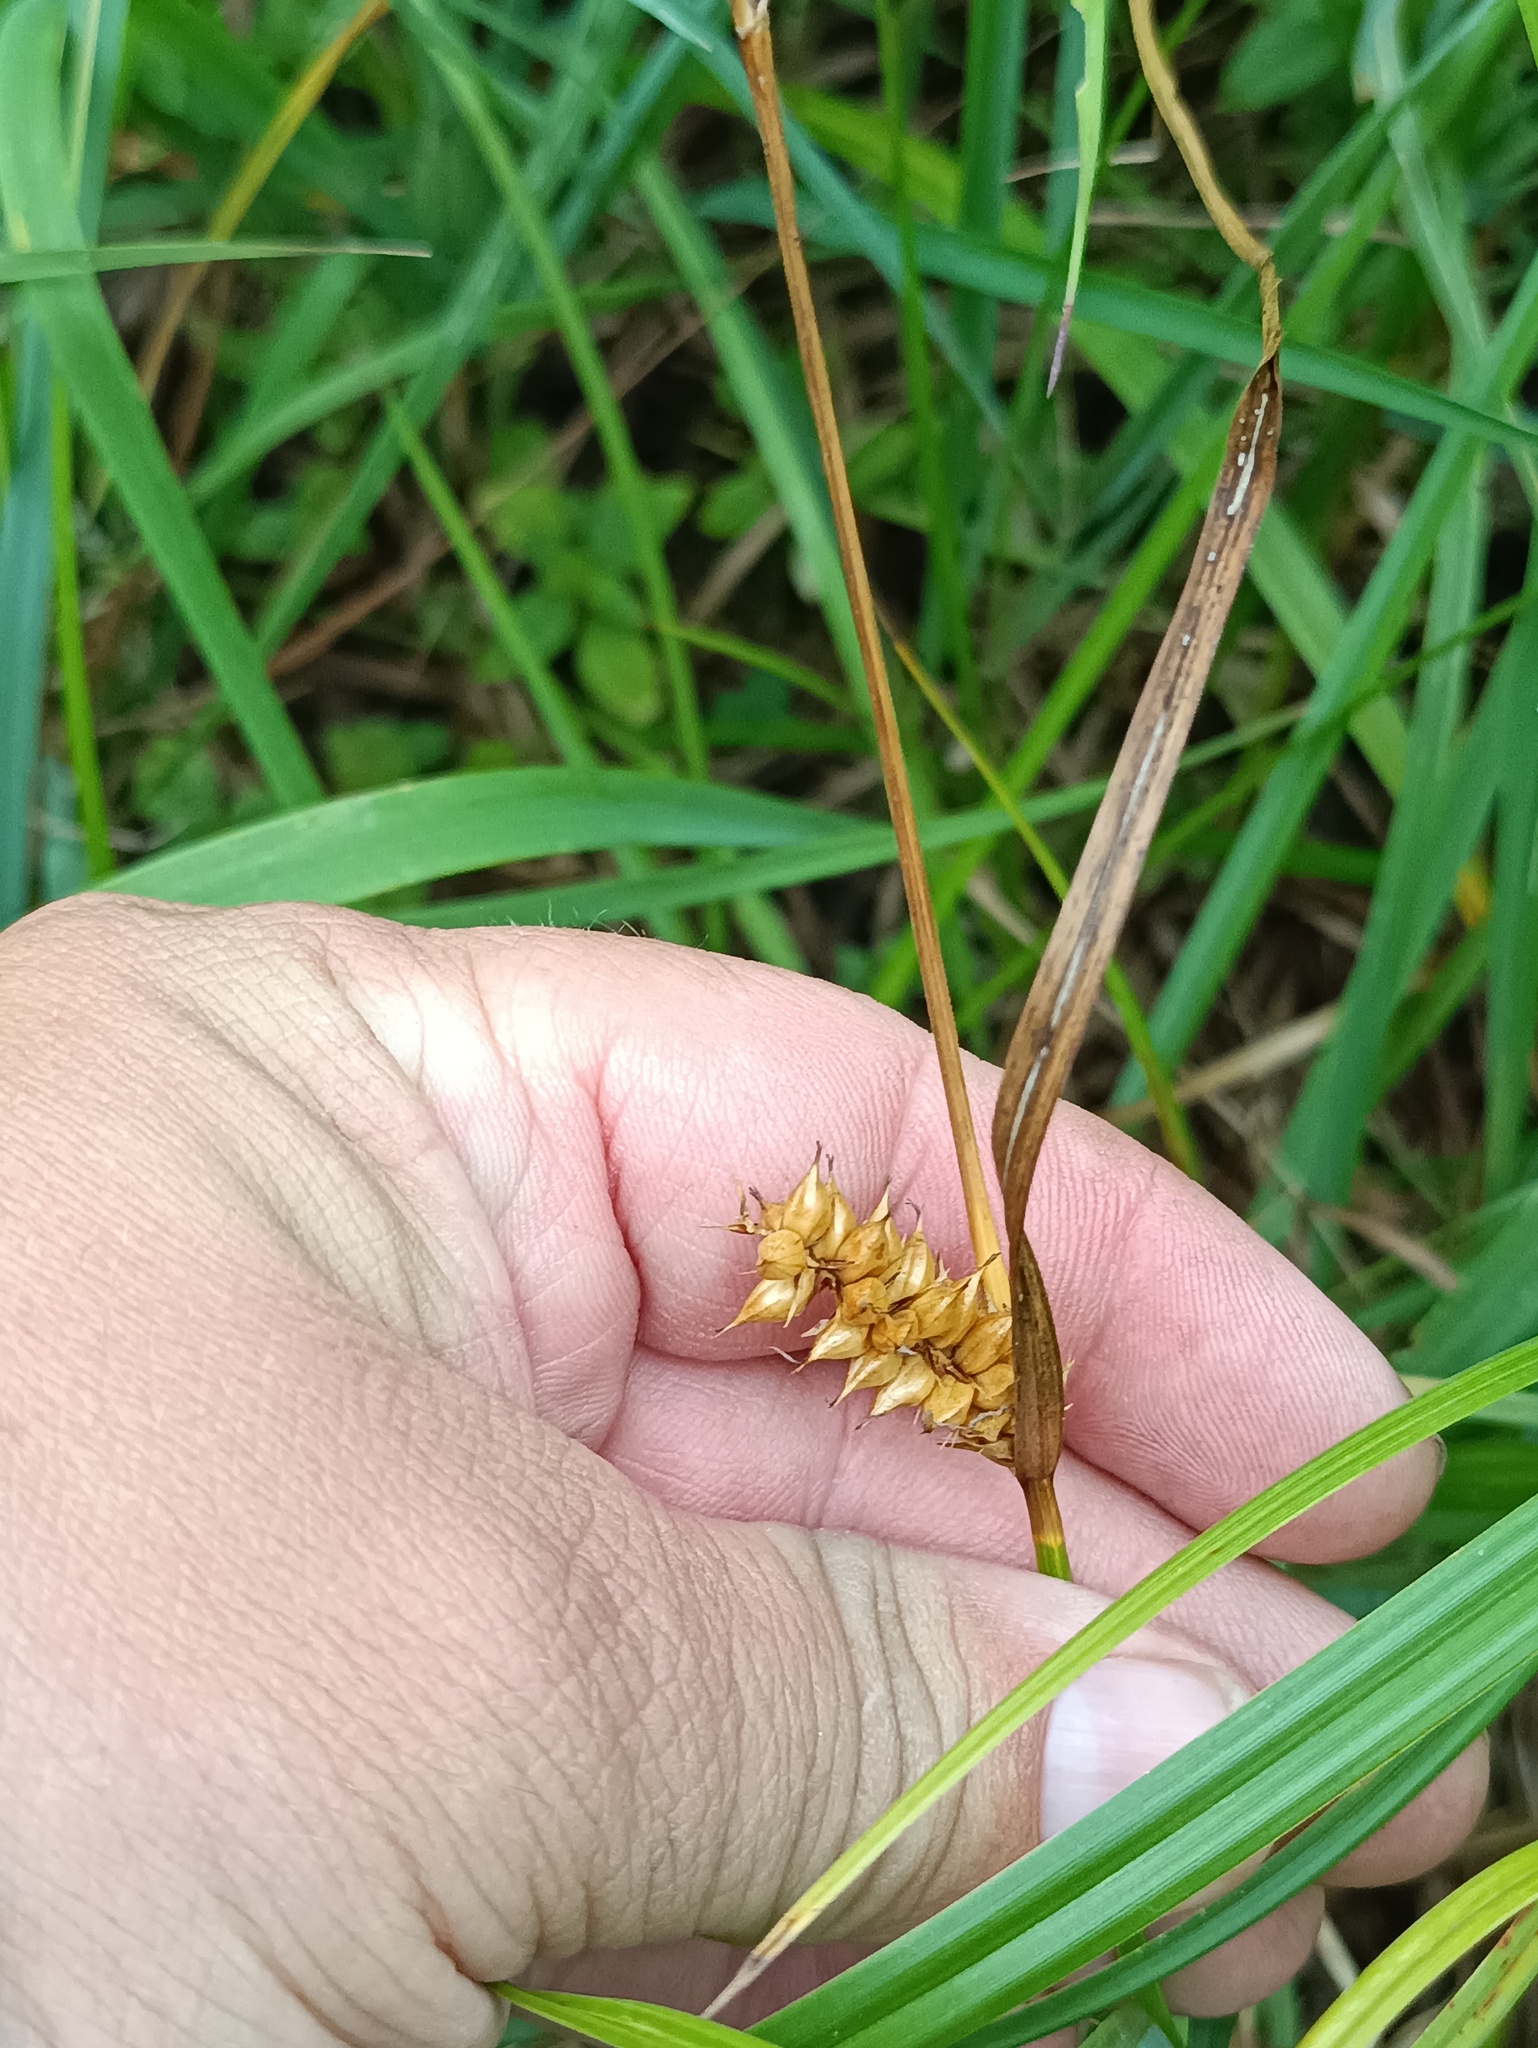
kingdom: Plantae
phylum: Tracheophyta
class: Liliopsida
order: Poales
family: Cyperaceae
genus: Carex
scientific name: Carex vesicaria
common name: Bladder-sedge
